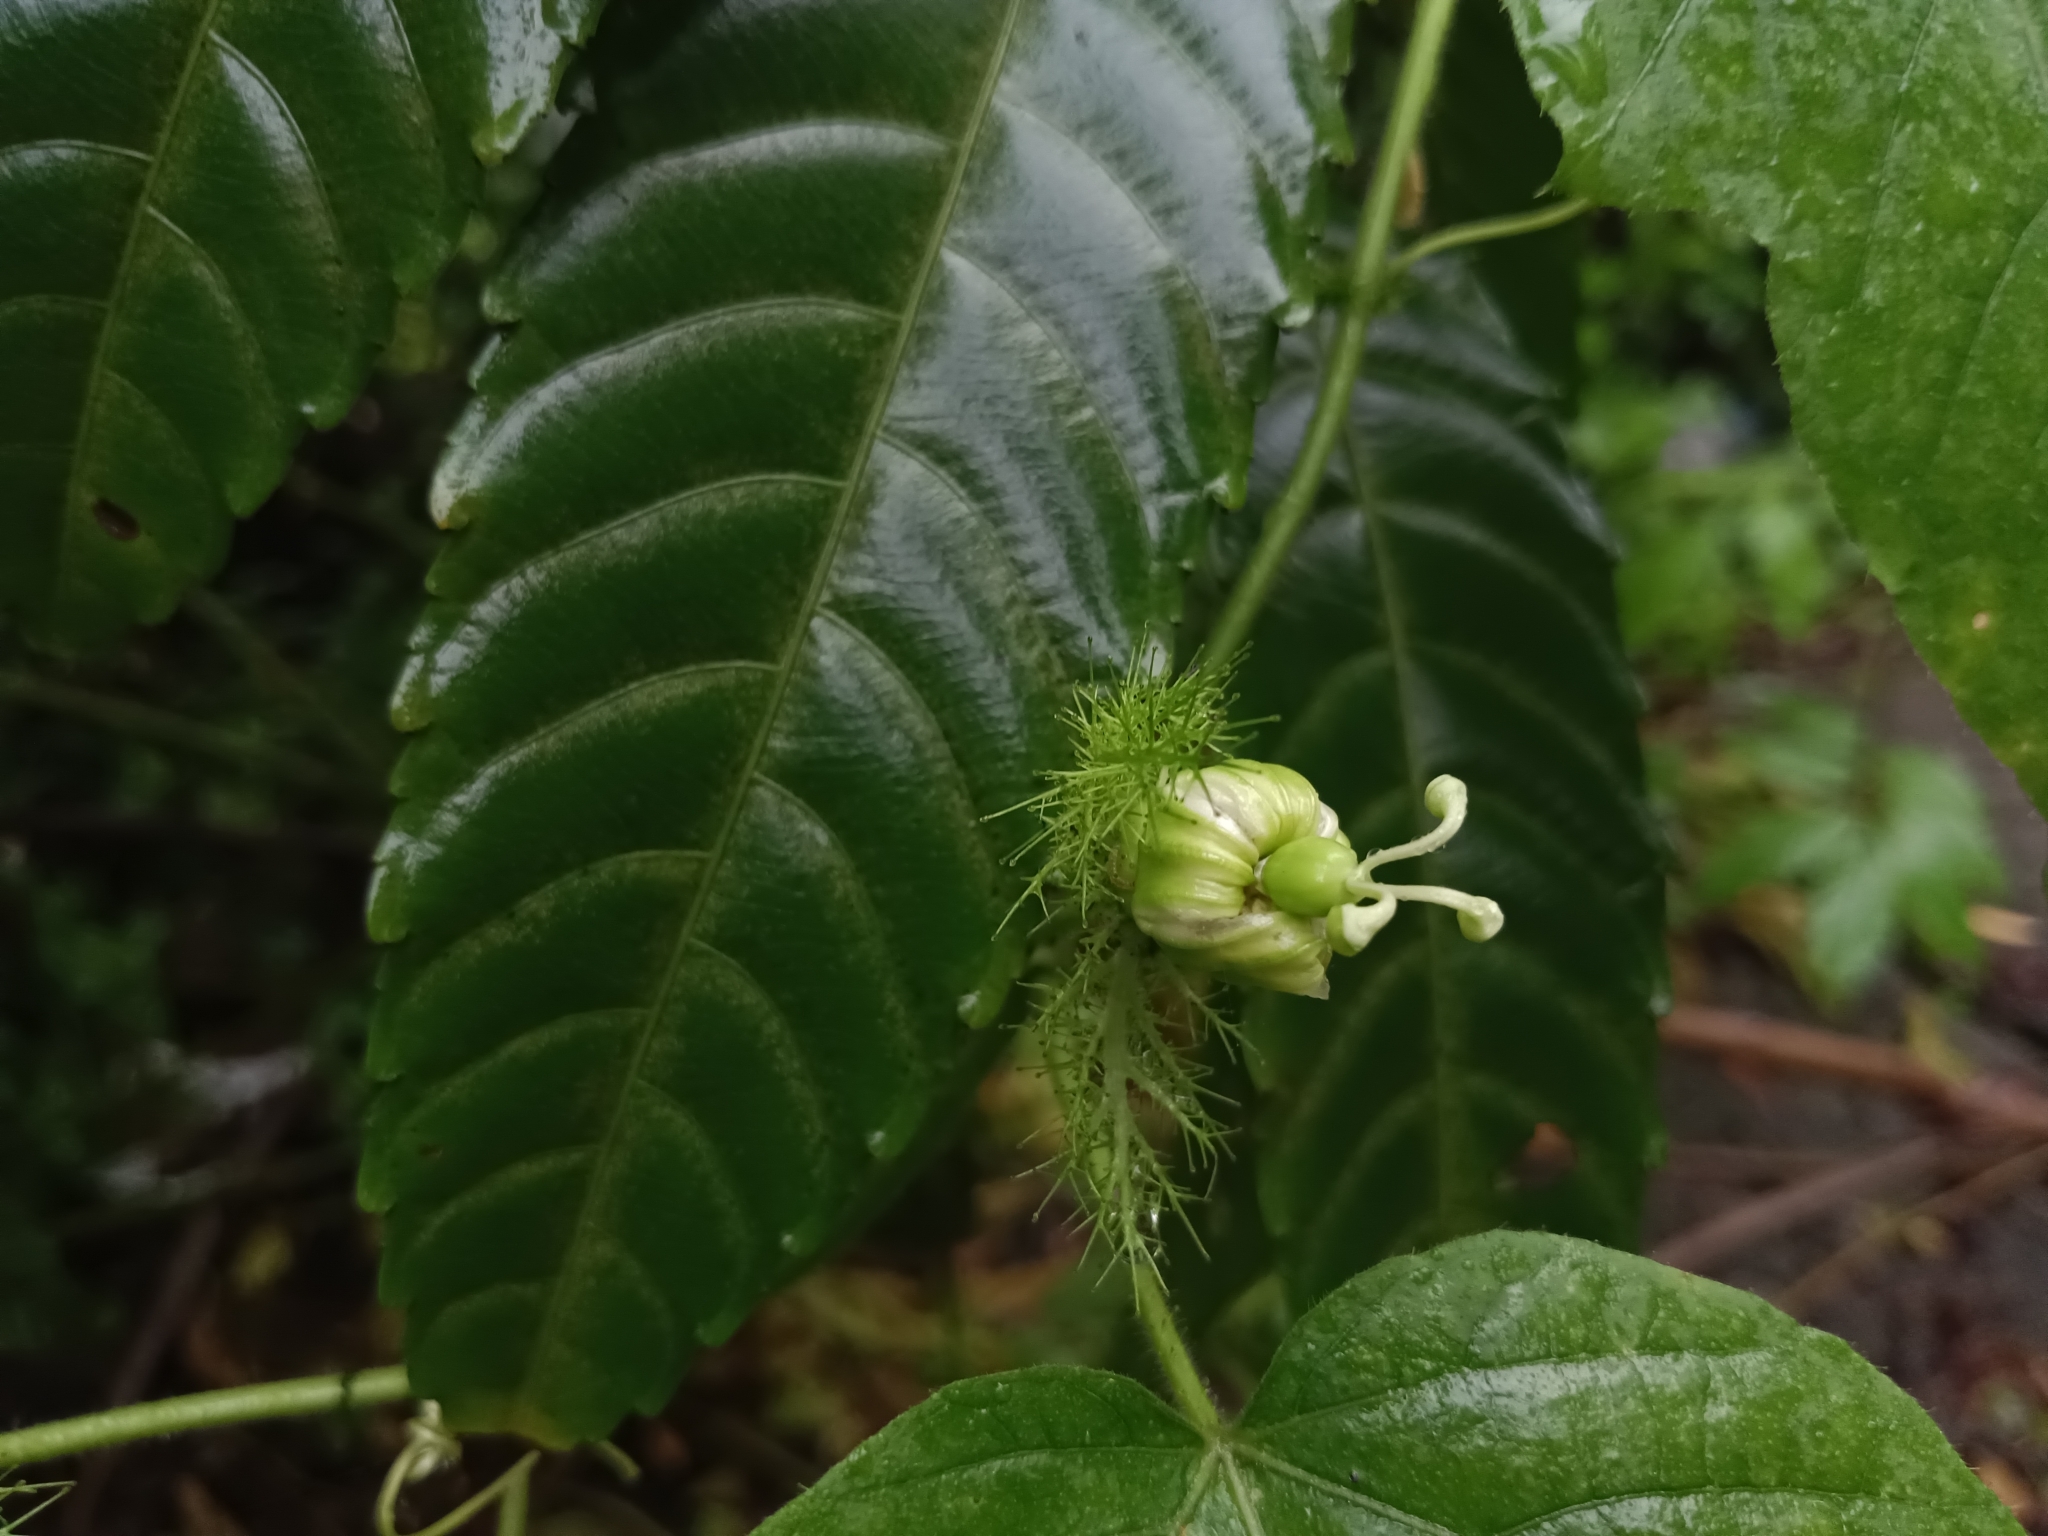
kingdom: Plantae
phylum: Tracheophyta
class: Magnoliopsida
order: Malpighiales
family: Passifloraceae
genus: Passiflora
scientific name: Passiflora vesicaria
